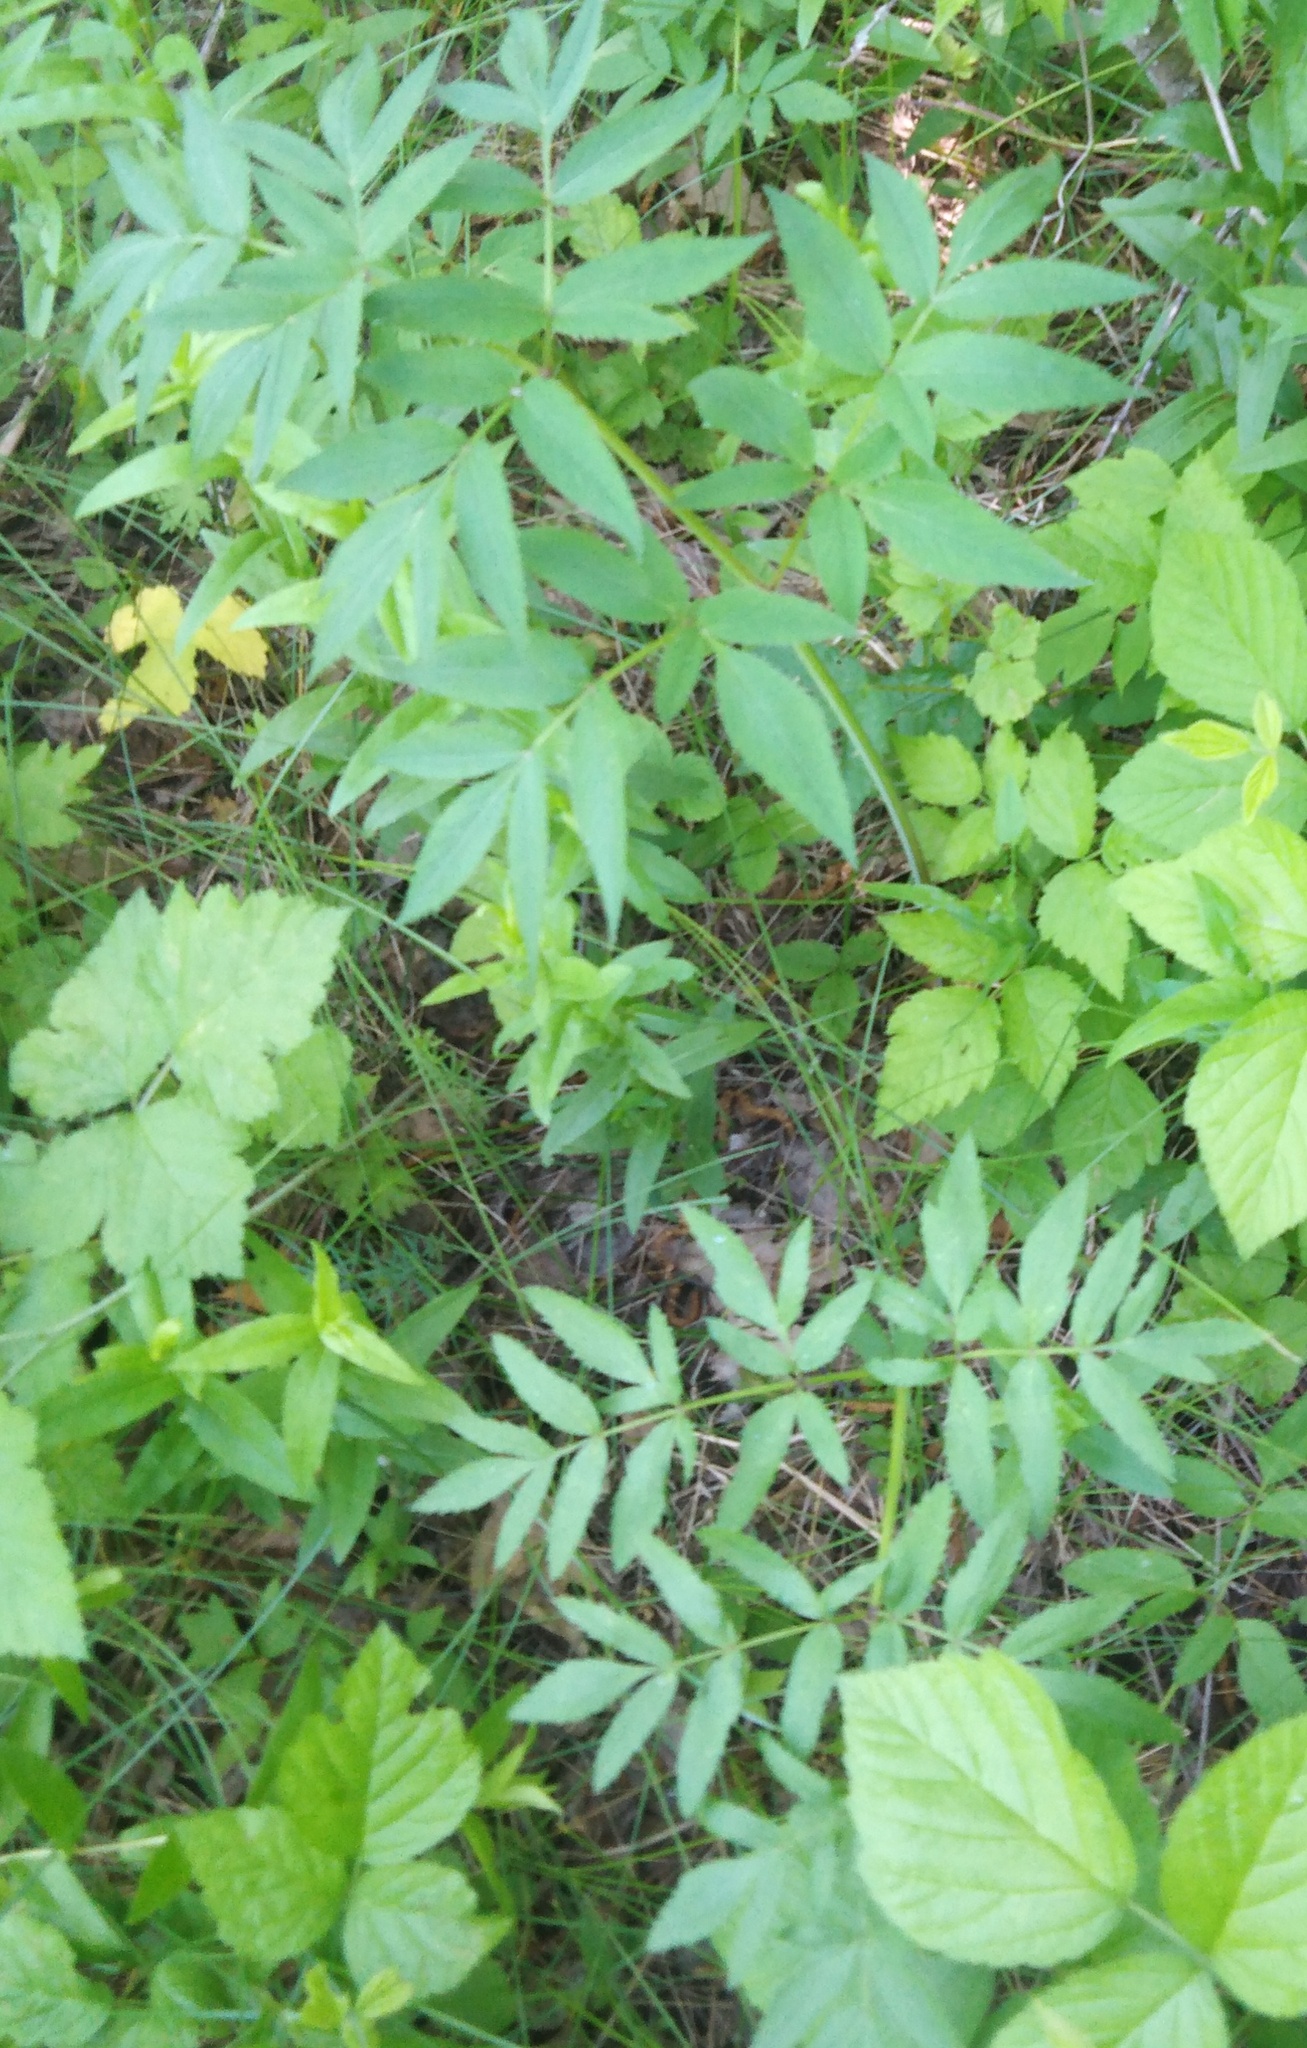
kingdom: Plantae
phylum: Tracheophyta
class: Magnoliopsida
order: Apiales
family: Apiaceae
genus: Angelica
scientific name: Angelica sylvestris
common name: Wild angelica
